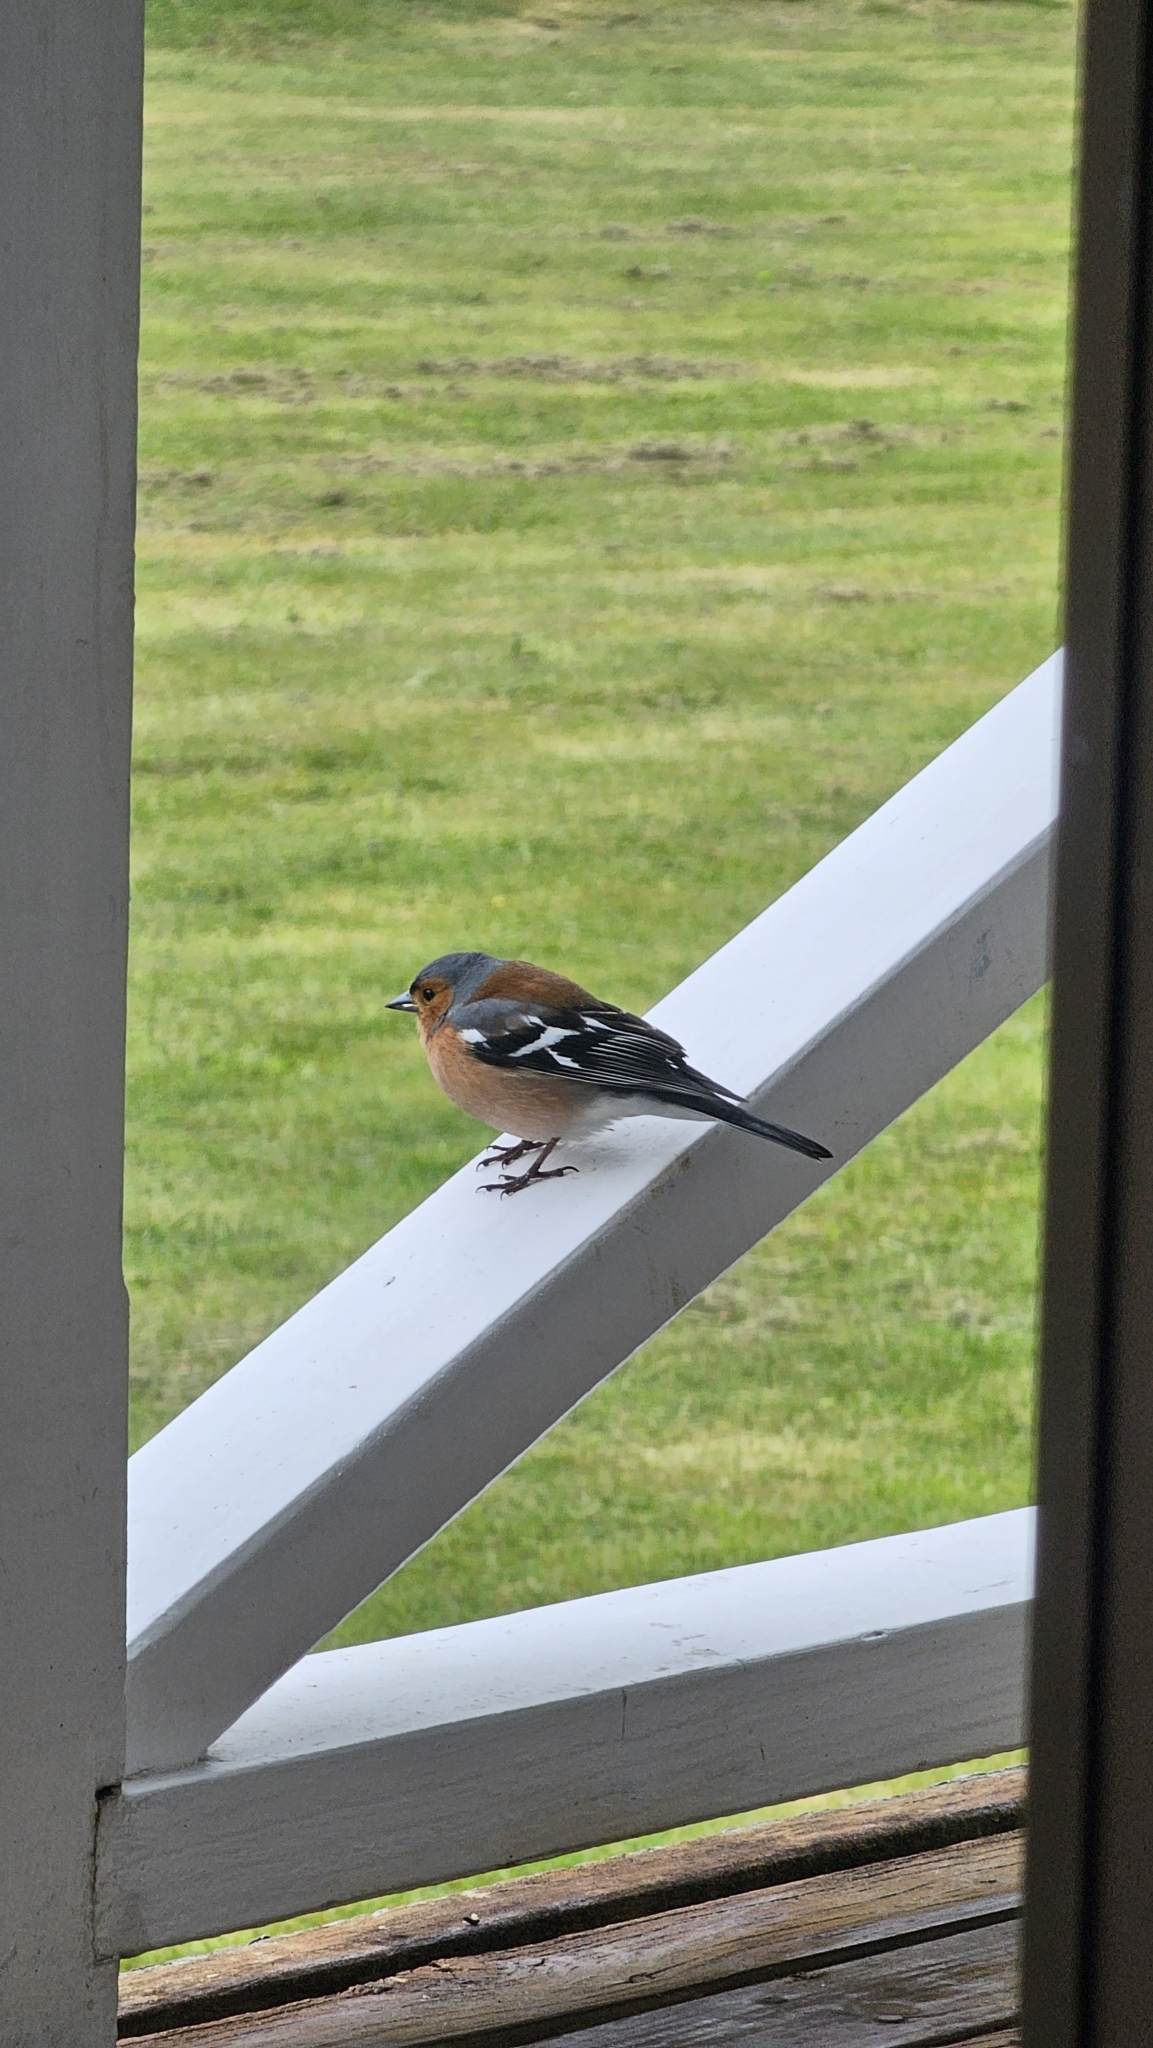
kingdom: Animalia
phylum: Chordata
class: Aves
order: Passeriformes
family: Fringillidae
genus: Fringilla
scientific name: Fringilla coelebs
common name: Common chaffinch
